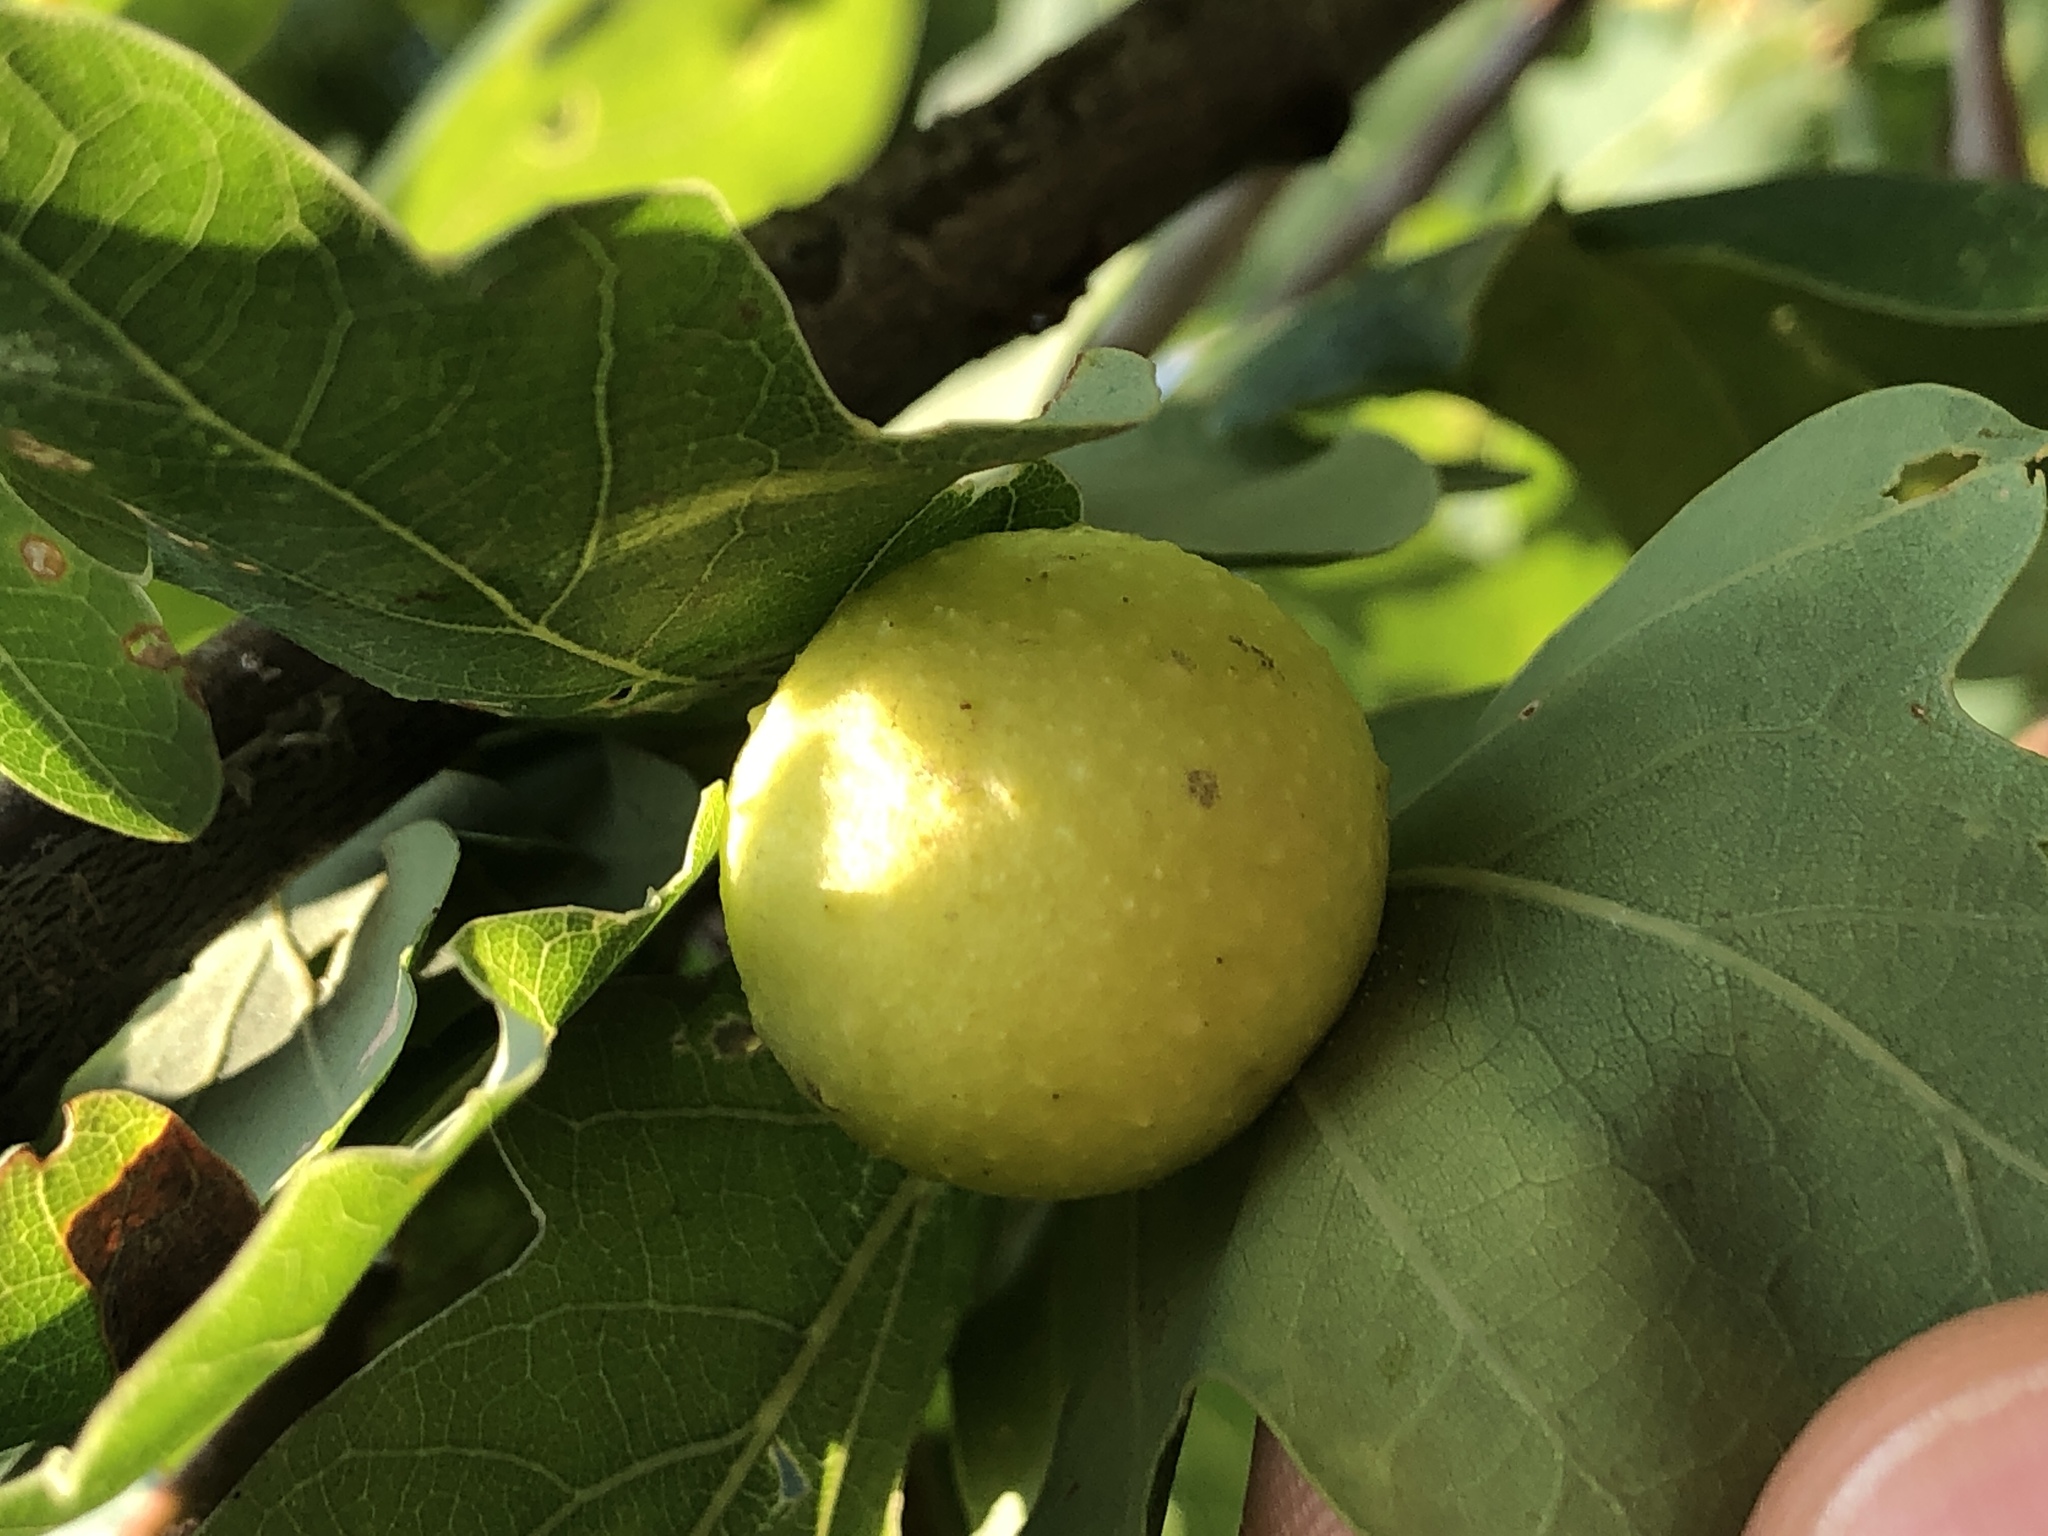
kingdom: Animalia
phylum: Arthropoda
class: Insecta
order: Hymenoptera
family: Cynipidae
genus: Cynips
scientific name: Cynips quercusfolii
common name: Cherry gall
